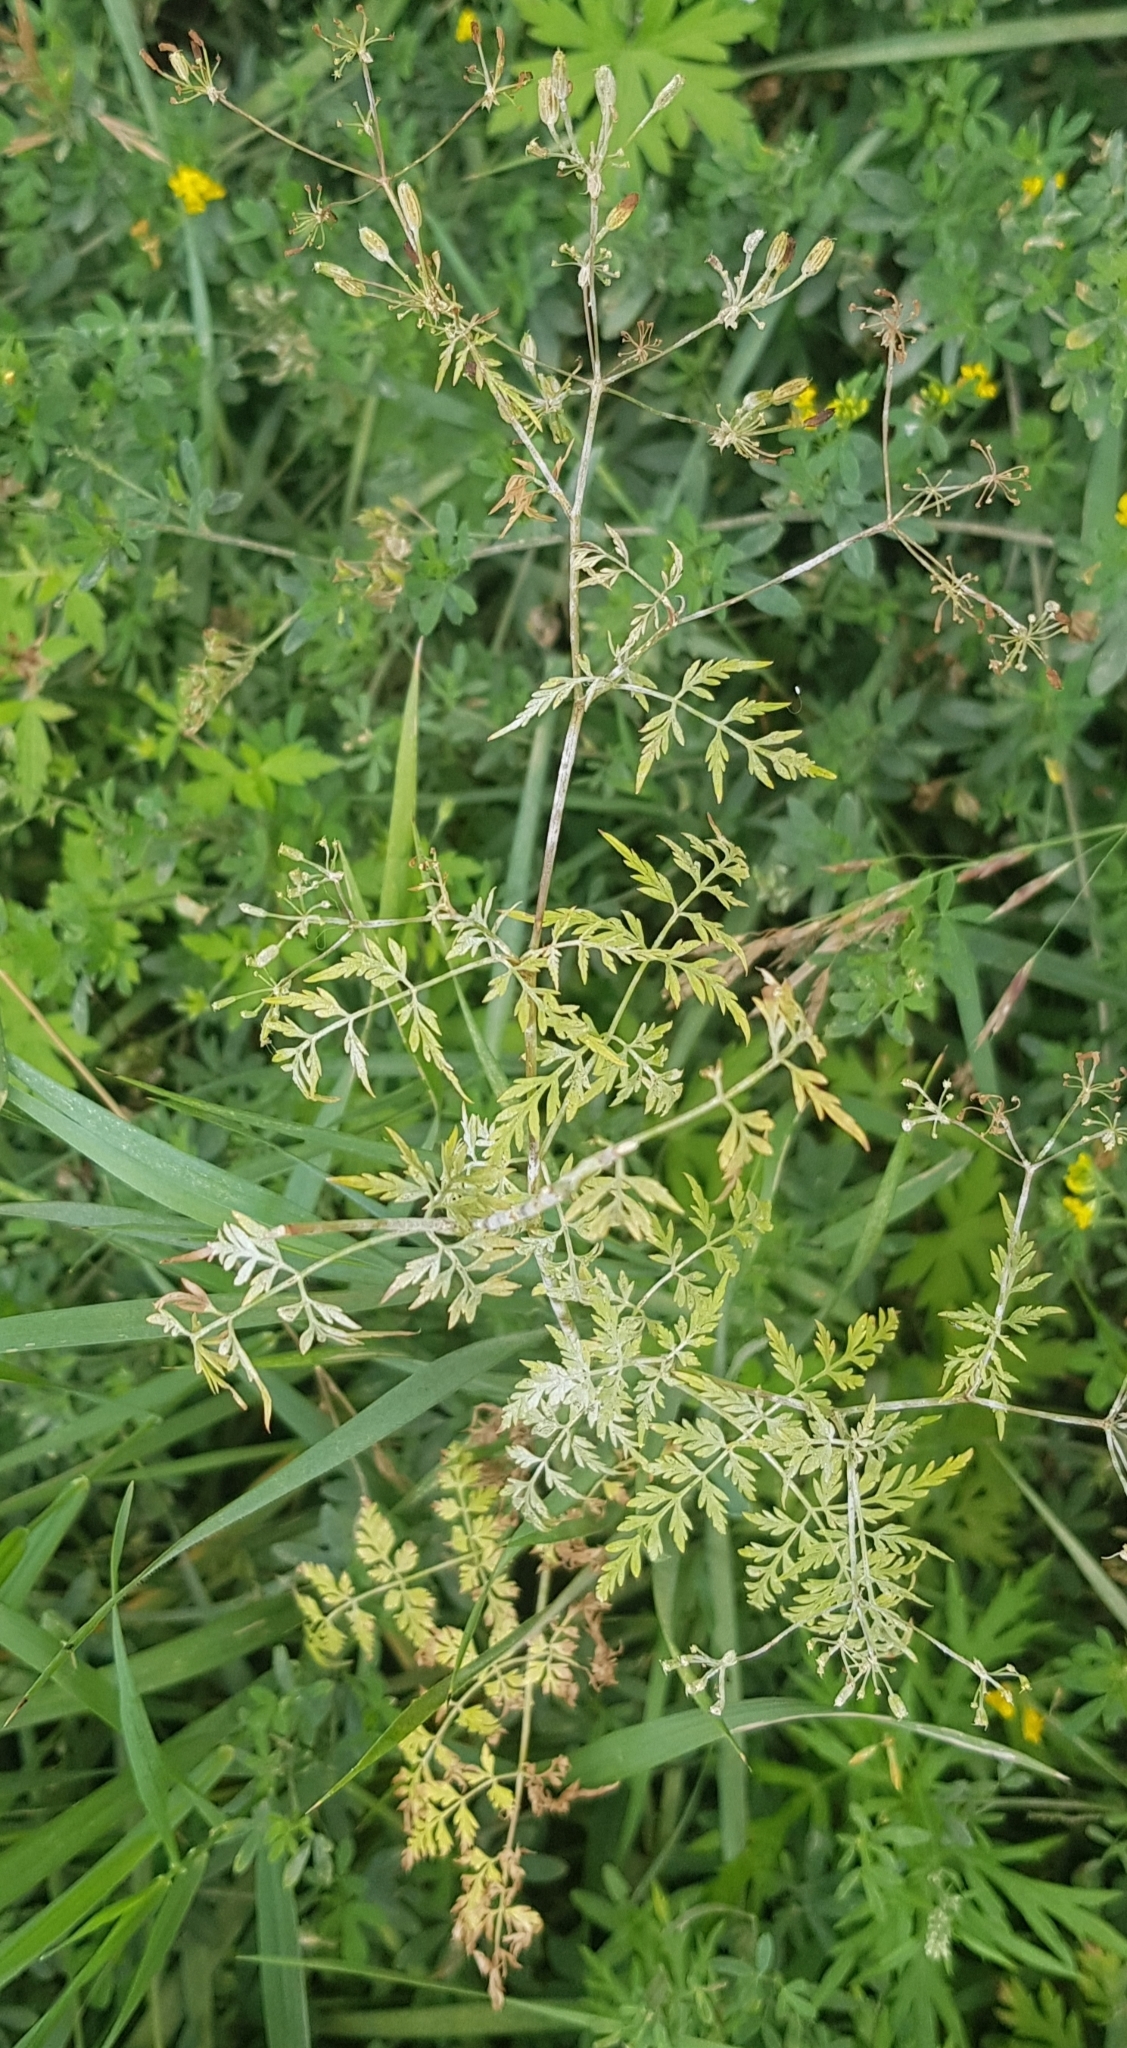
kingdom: Plantae
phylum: Tracheophyta
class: Magnoliopsida
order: Apiales
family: Apiaceae
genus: Sphallerocarpus
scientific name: Sphallerocarpus gracilis
